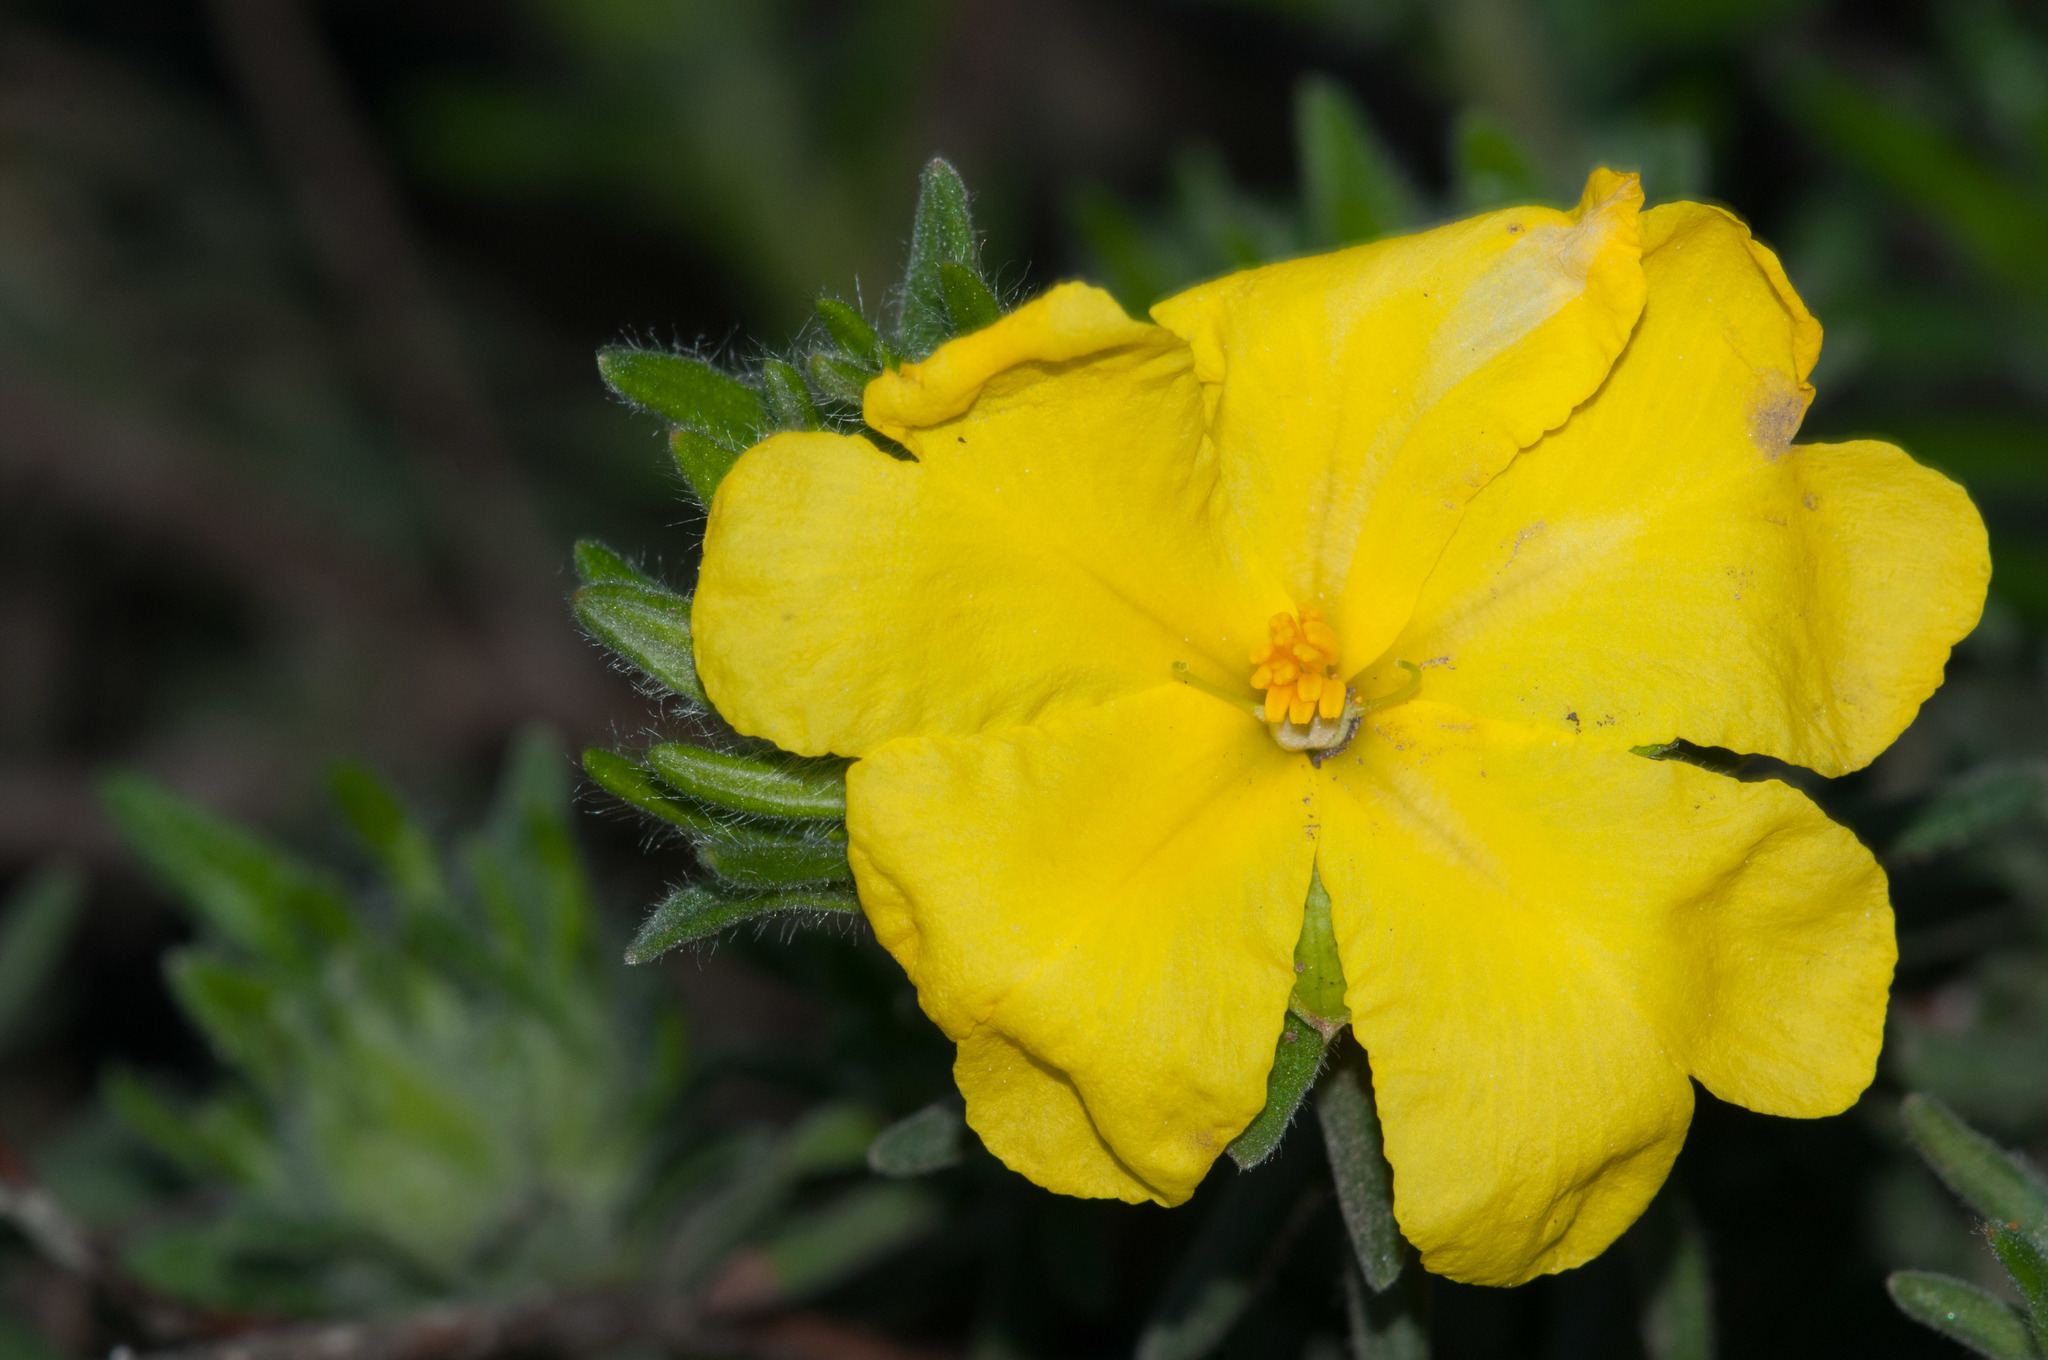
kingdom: Plantae
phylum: Tracheophyta
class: Magnoliopsida
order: Dilleniales
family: Dilleniaceae
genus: Hibbertia
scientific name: Hibbertia crinita
